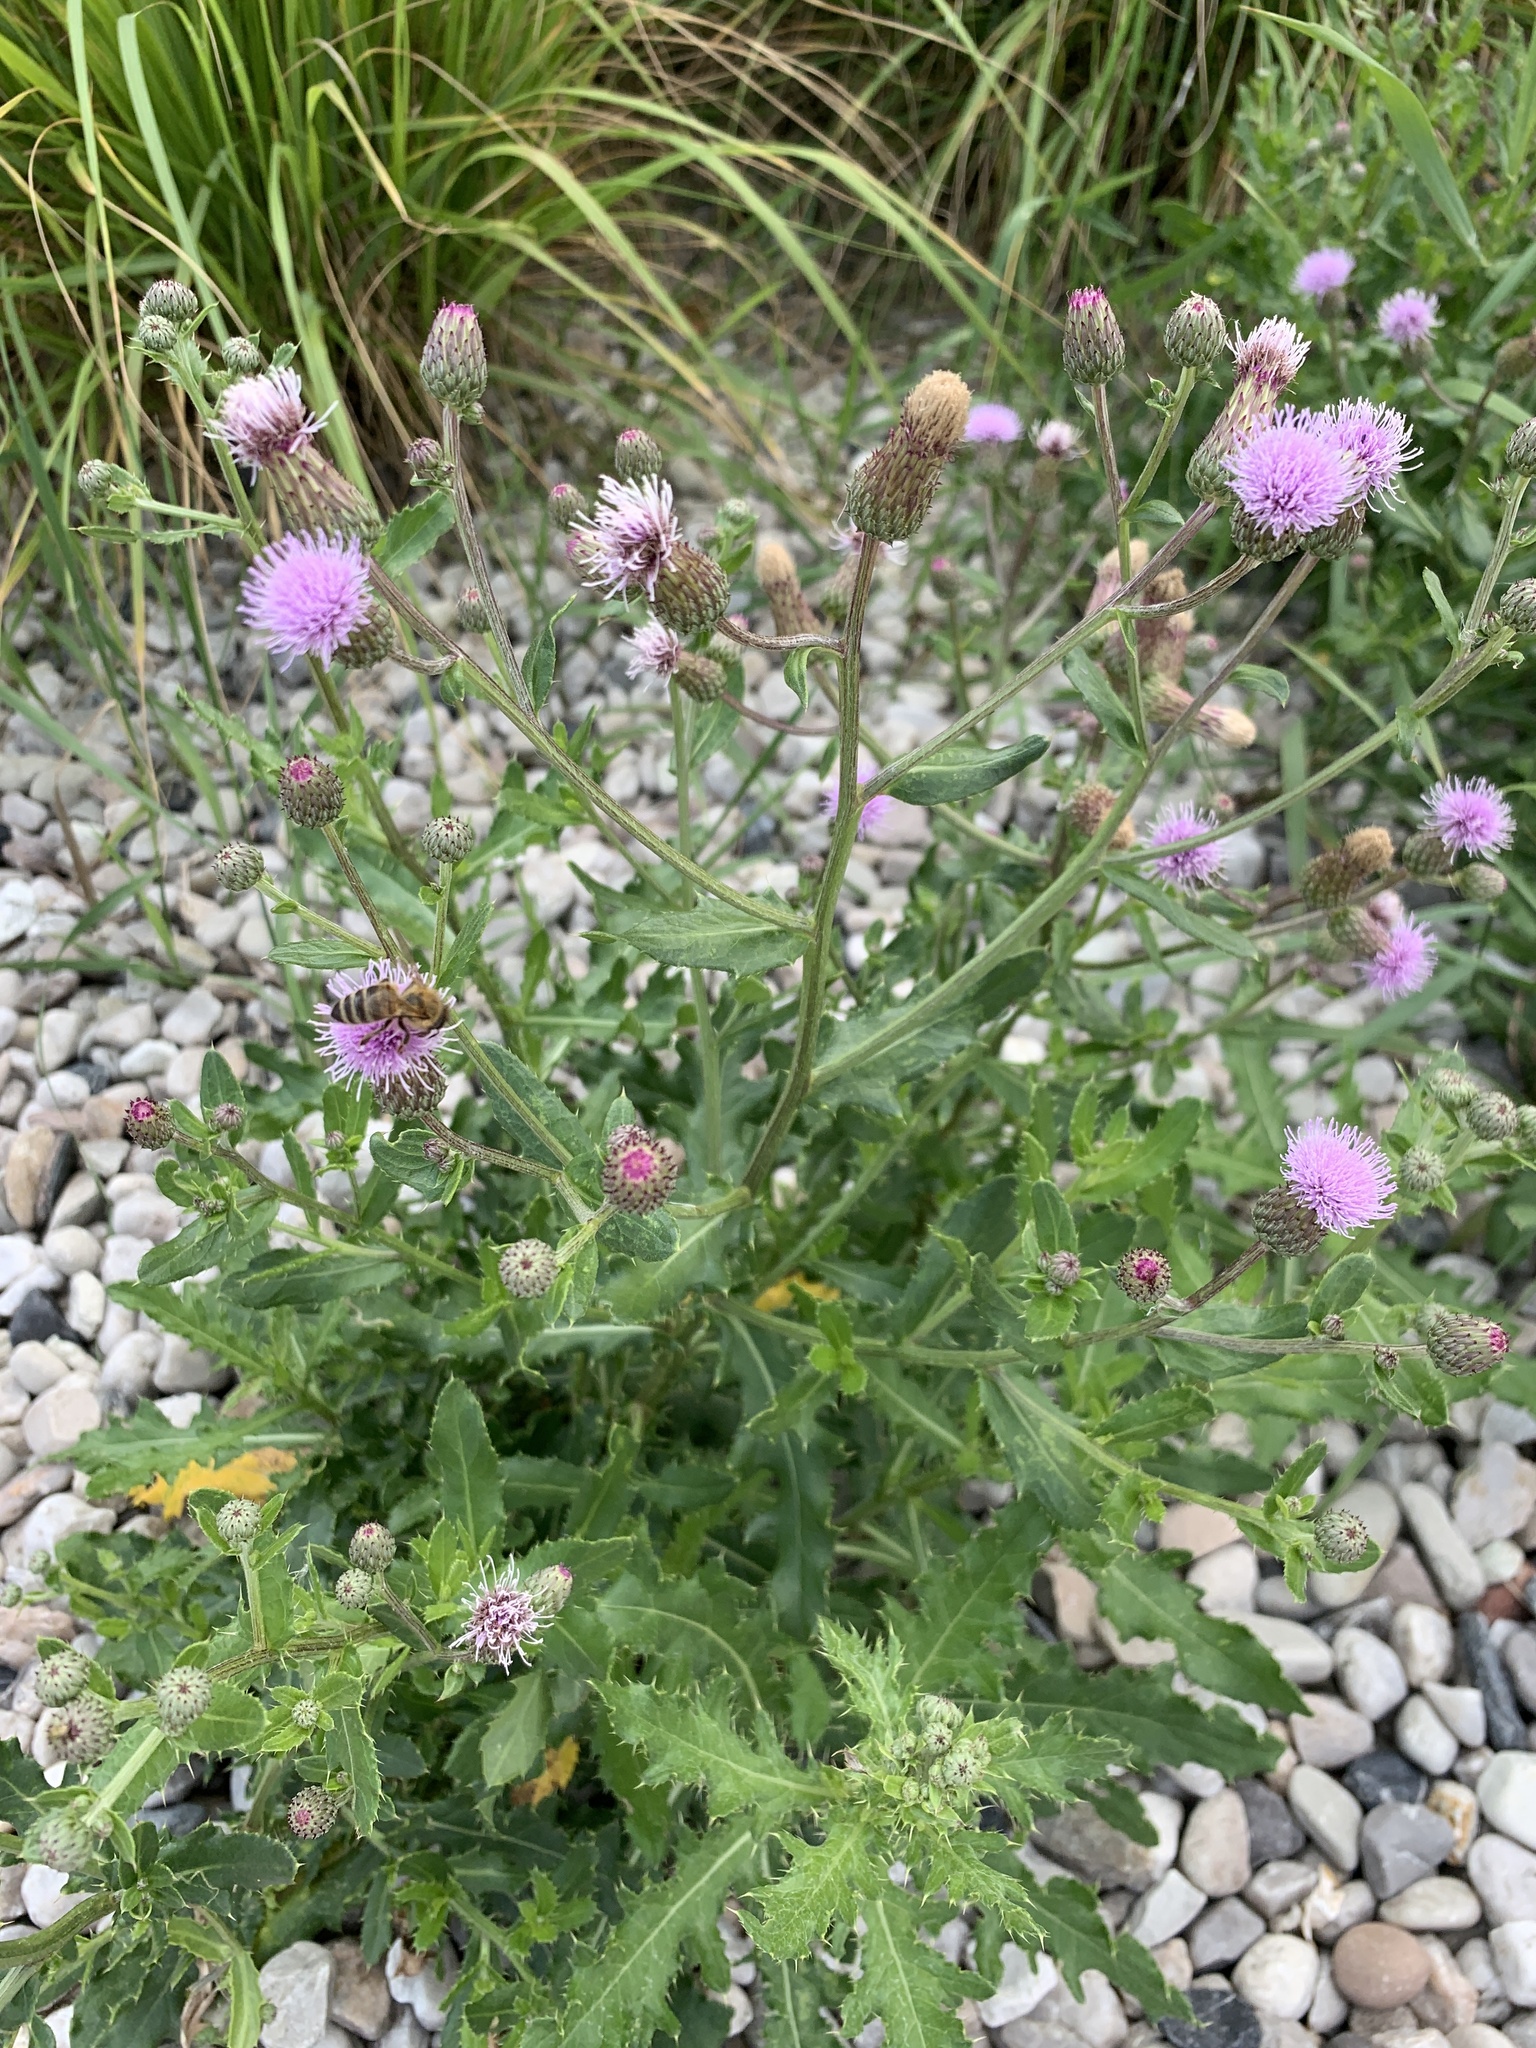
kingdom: Plantae
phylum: Tracheophyta
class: Magnoliopsida
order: Asterales
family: Asteraceae
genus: Cirsium
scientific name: Cirsium arvense
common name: Creeping thistle
